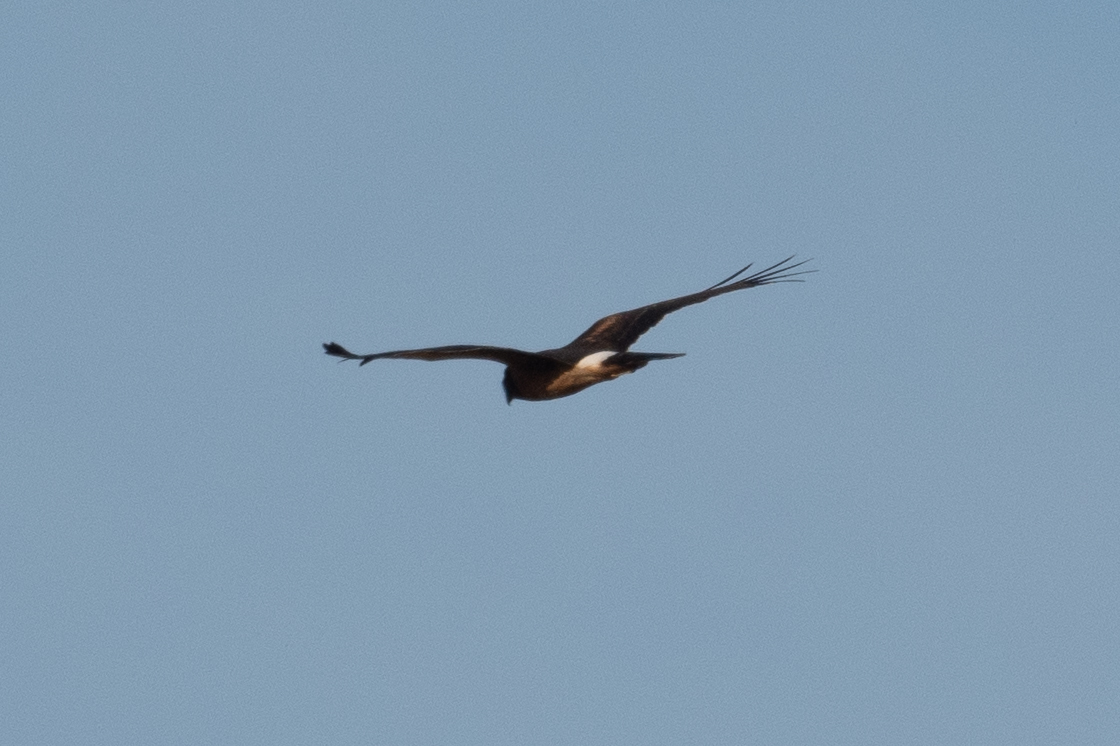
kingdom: Animalia
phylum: Chordata
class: Aves
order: Accipitriformes
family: Accipitridae
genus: Circus
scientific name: Circus cyaneus
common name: Hen harrier
